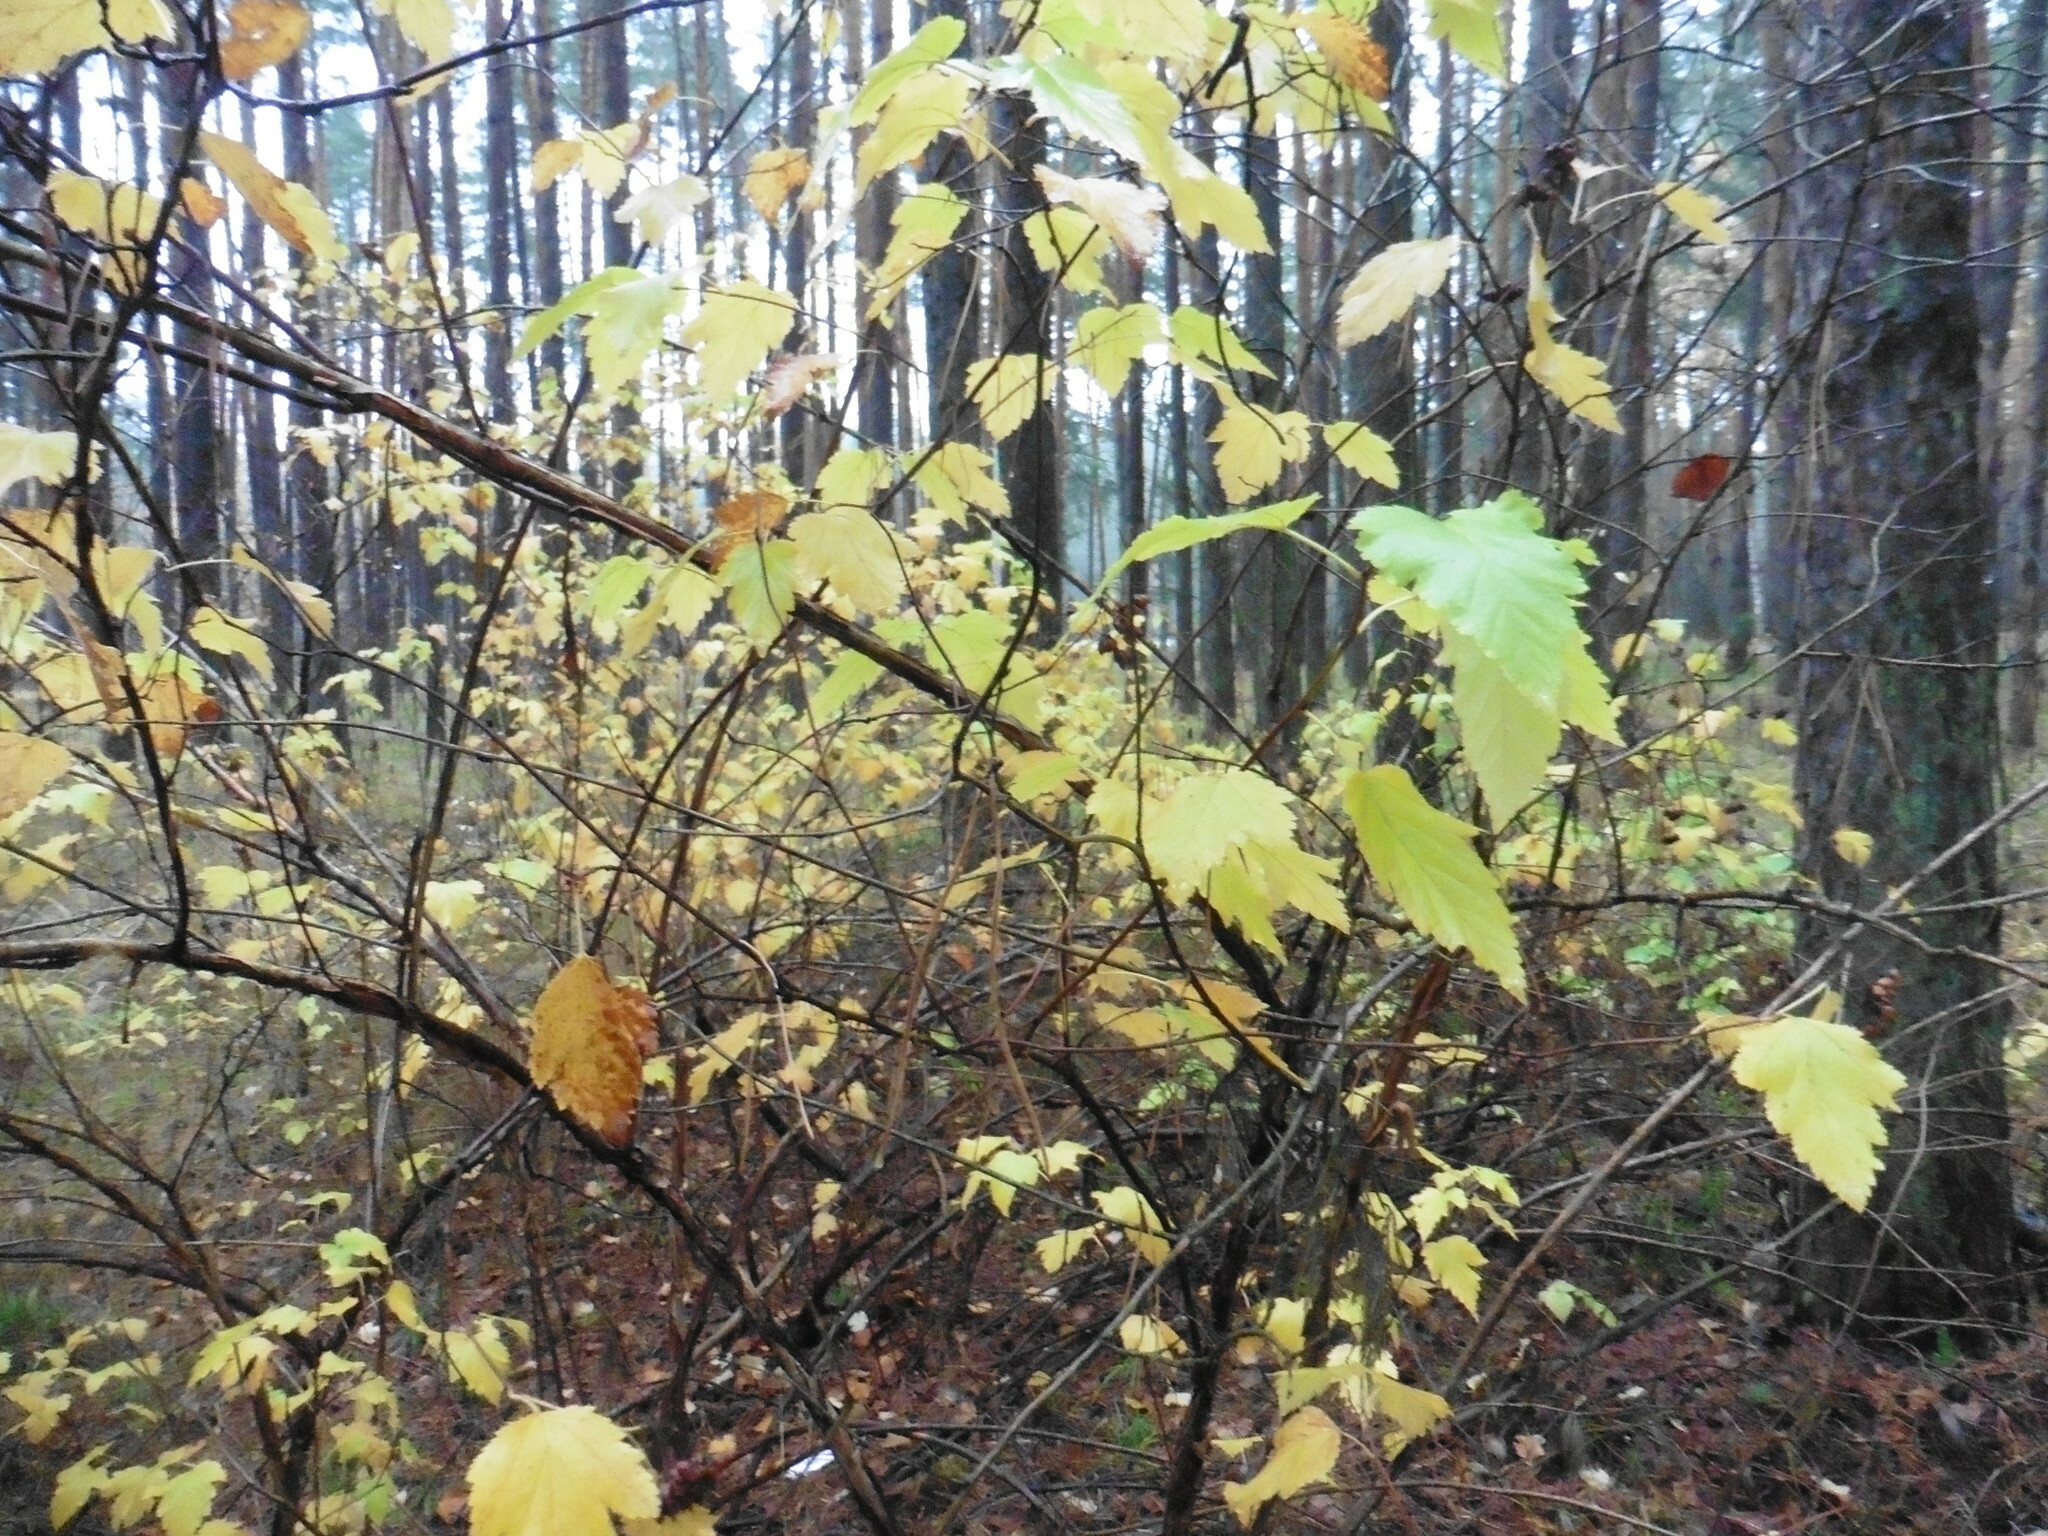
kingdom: Plantae
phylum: Tracheophyta
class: Magnoliopsida
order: Rosales
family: Rosaceae
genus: Physocarpus
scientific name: Physocarpus opulifolius
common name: Ninebark
